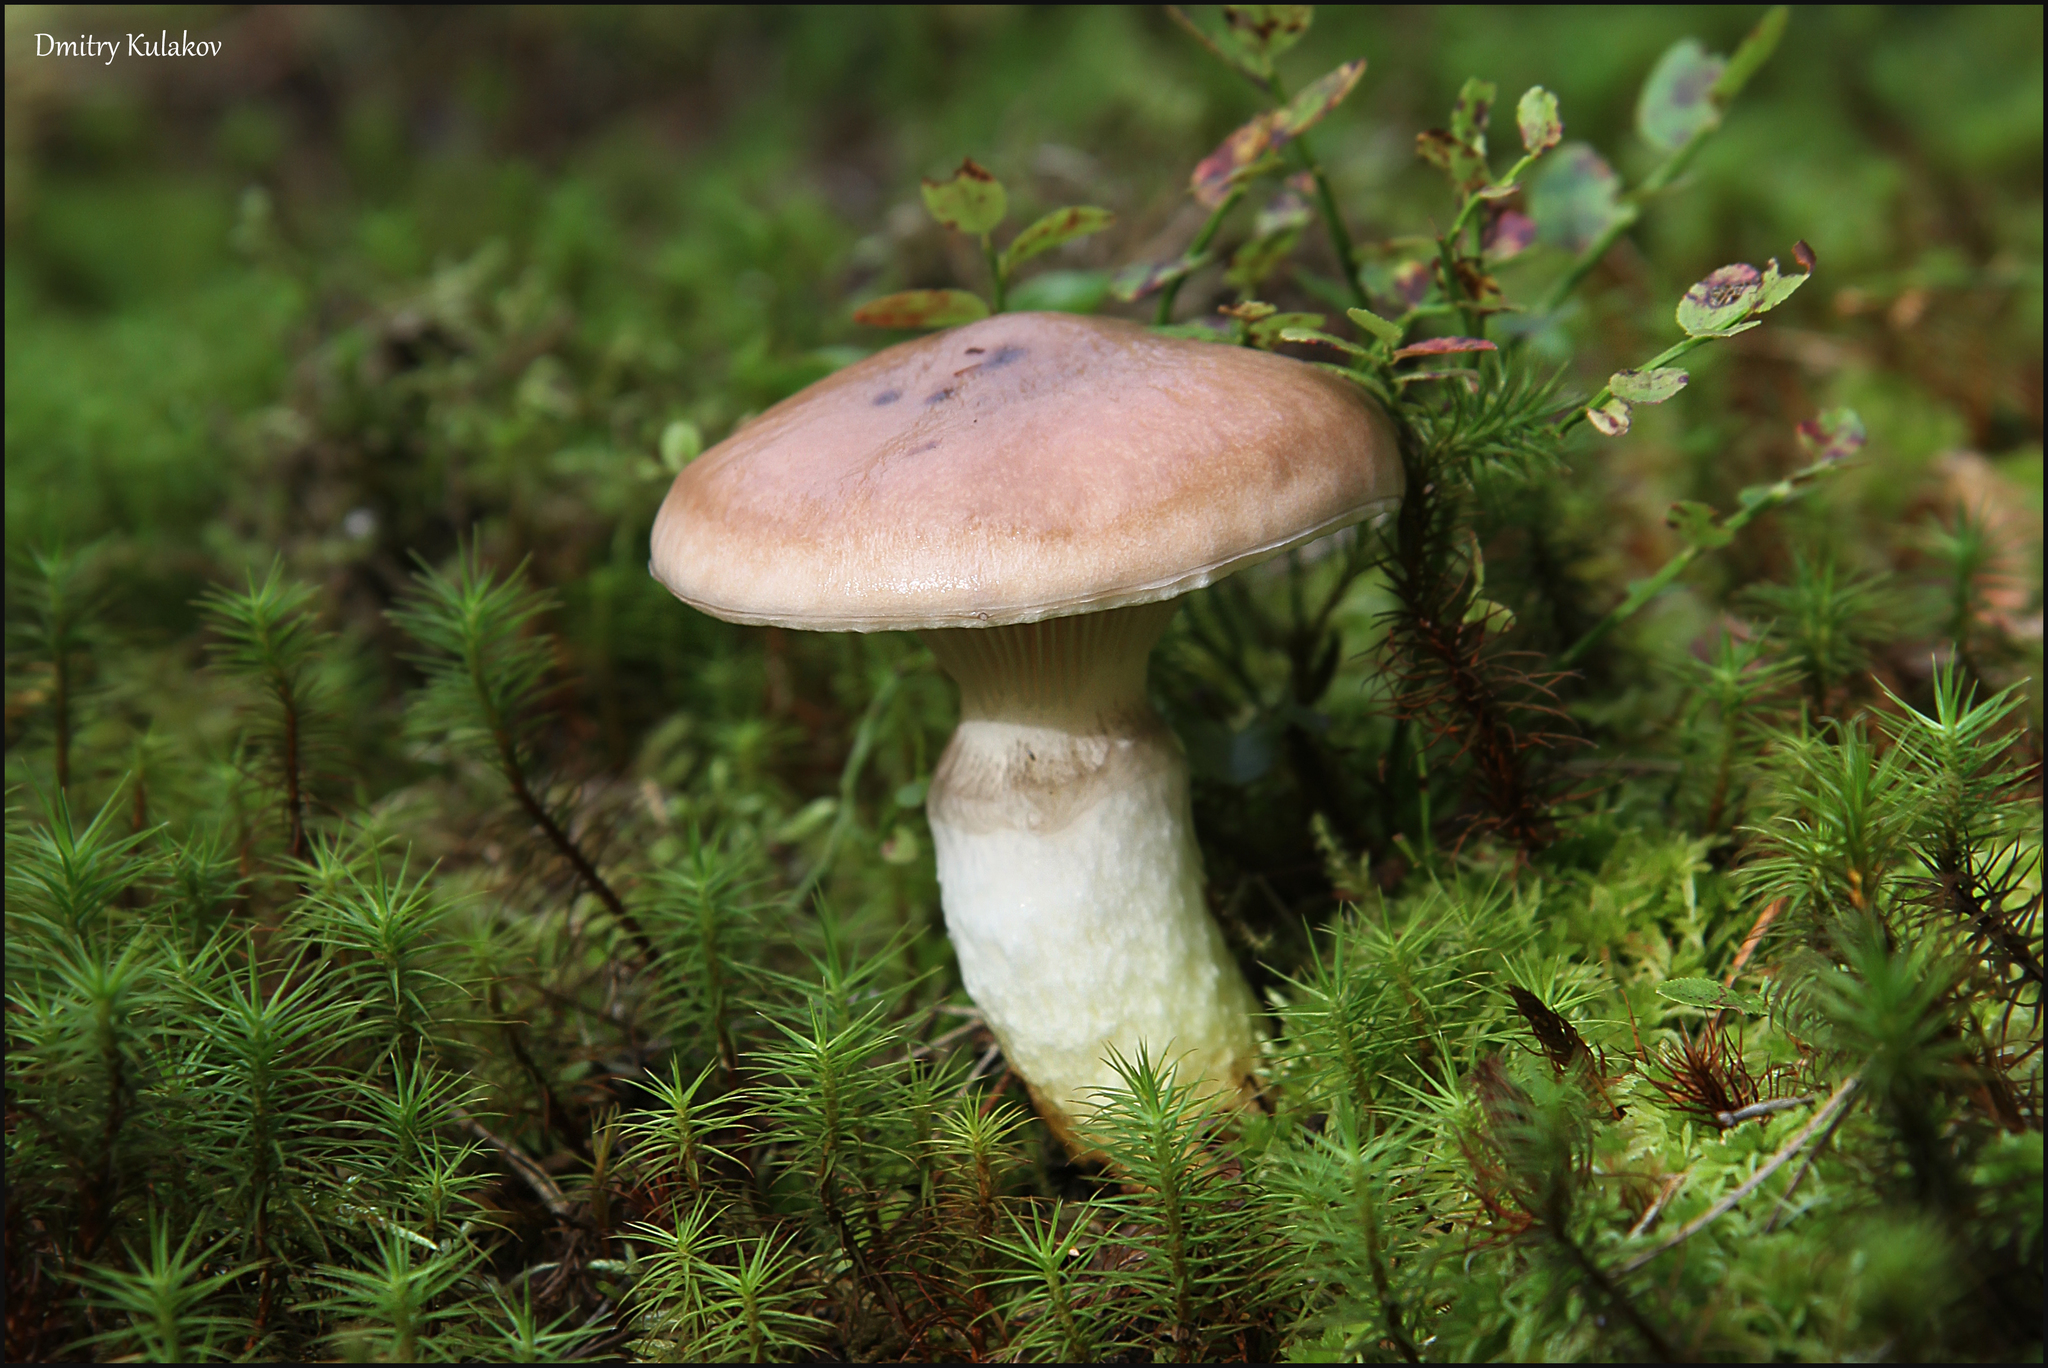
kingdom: Fungi
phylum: Basidiomycota
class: Agaricomycetes
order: Boletales
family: Gomphidiaceae
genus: Gomphidius
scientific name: Gomphidius glutinosus
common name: Slimy spike
